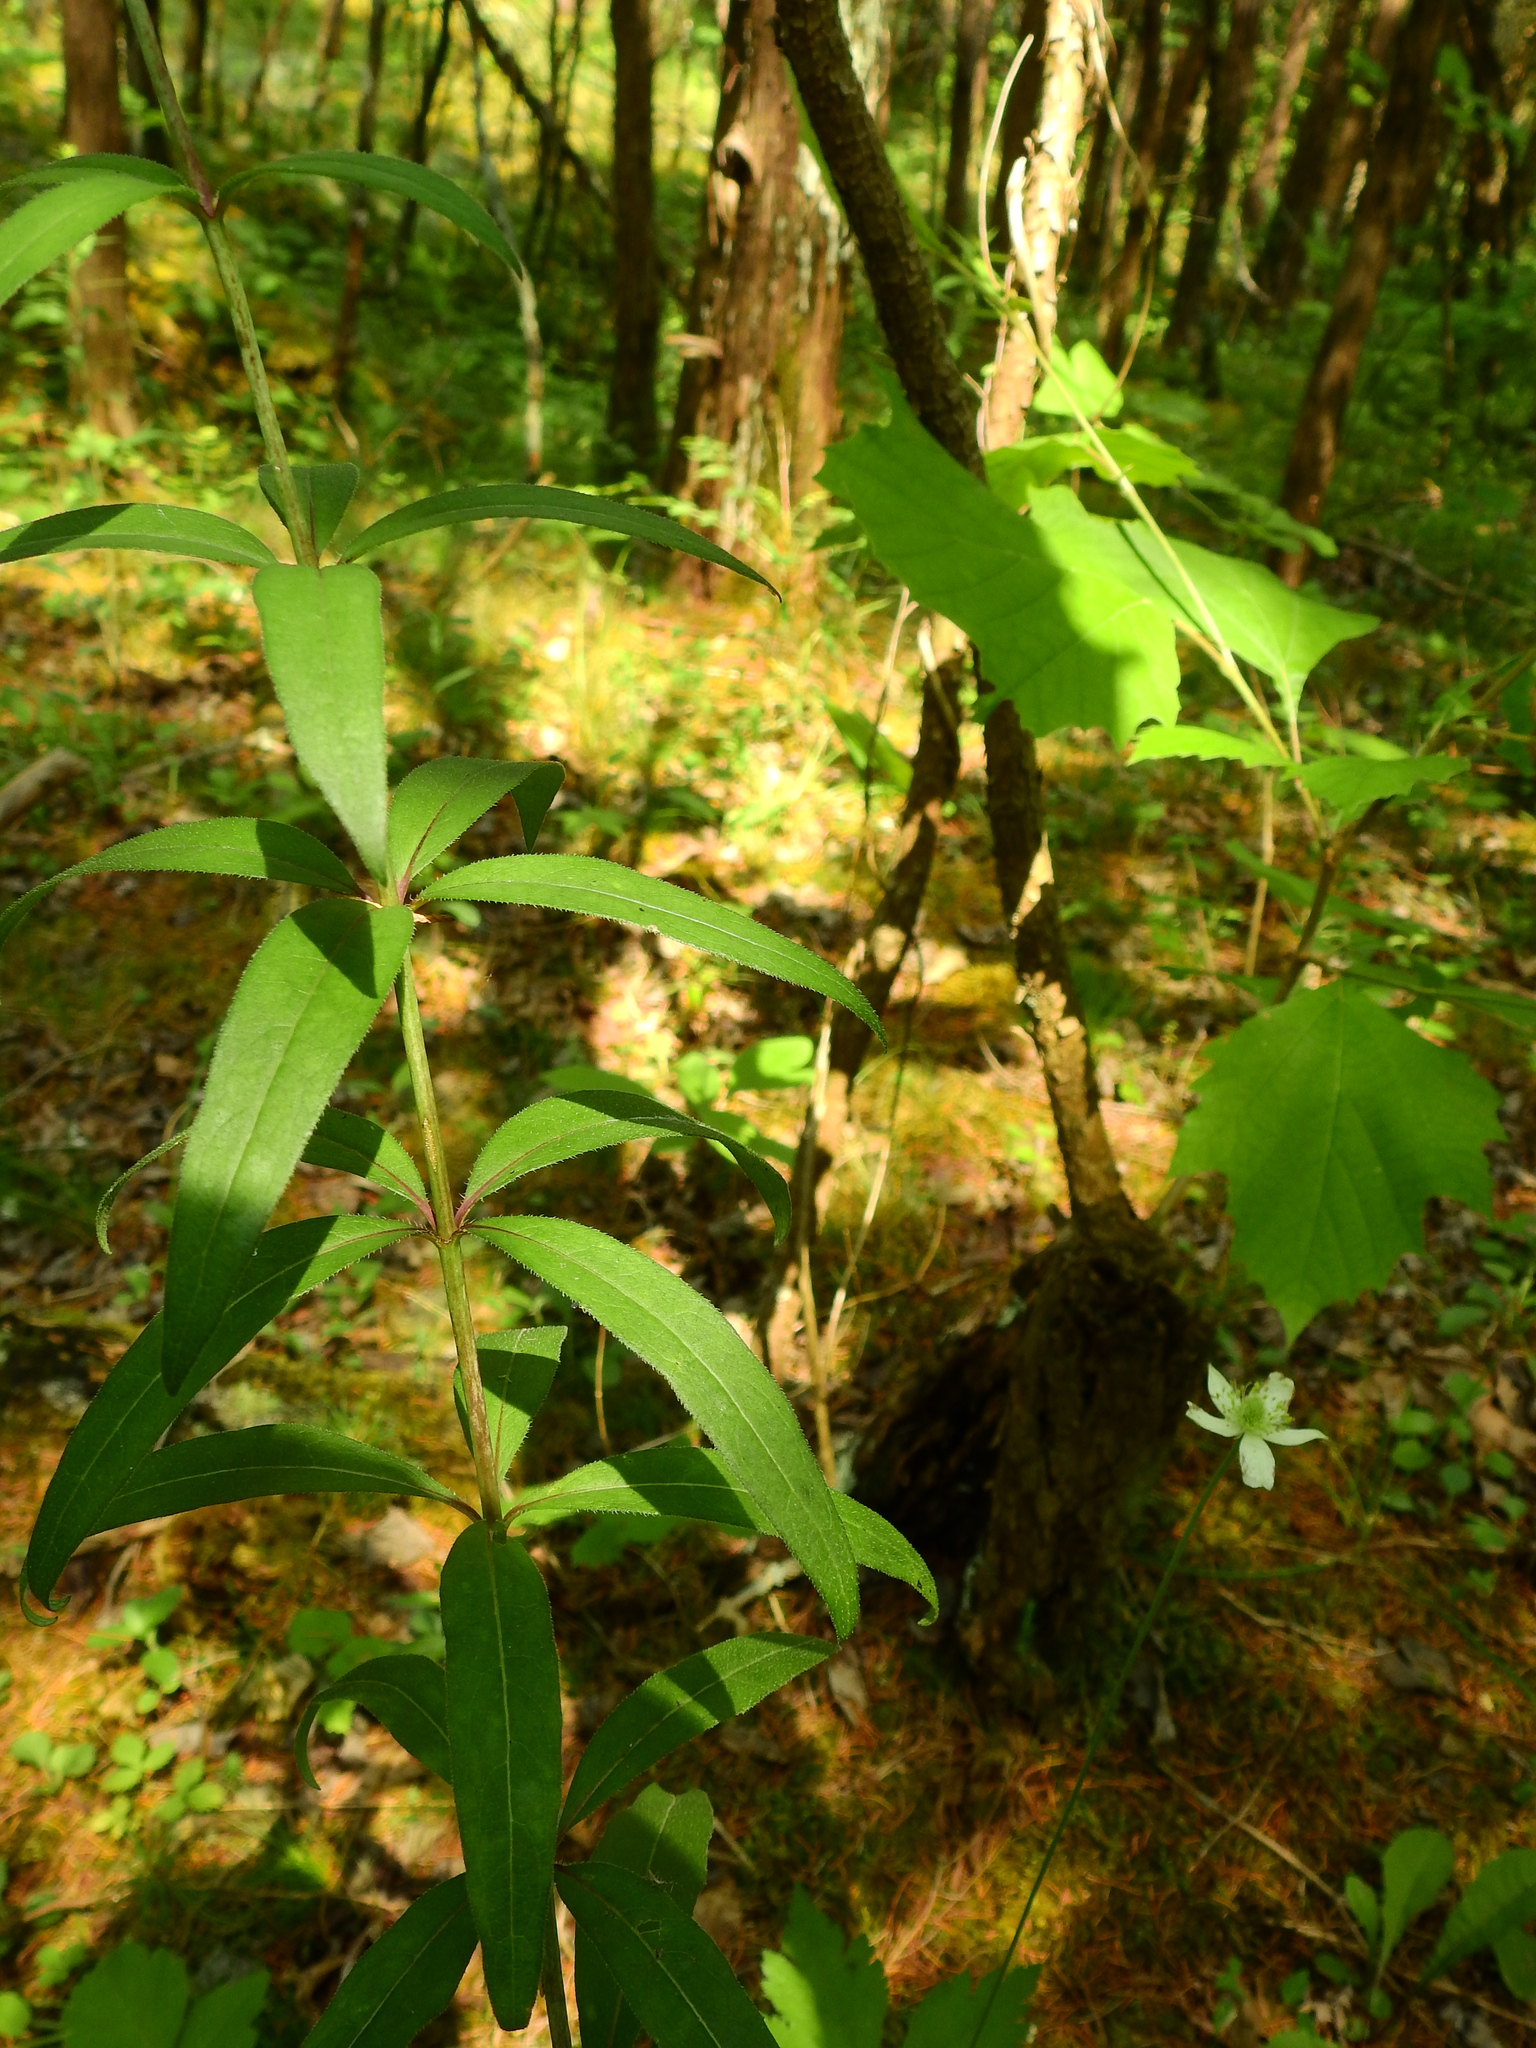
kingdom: Plantae
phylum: Tracheophyta
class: Magnoliopsida
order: Asterales
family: Asteraceae
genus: Silphium
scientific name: Silphium asteriscus
